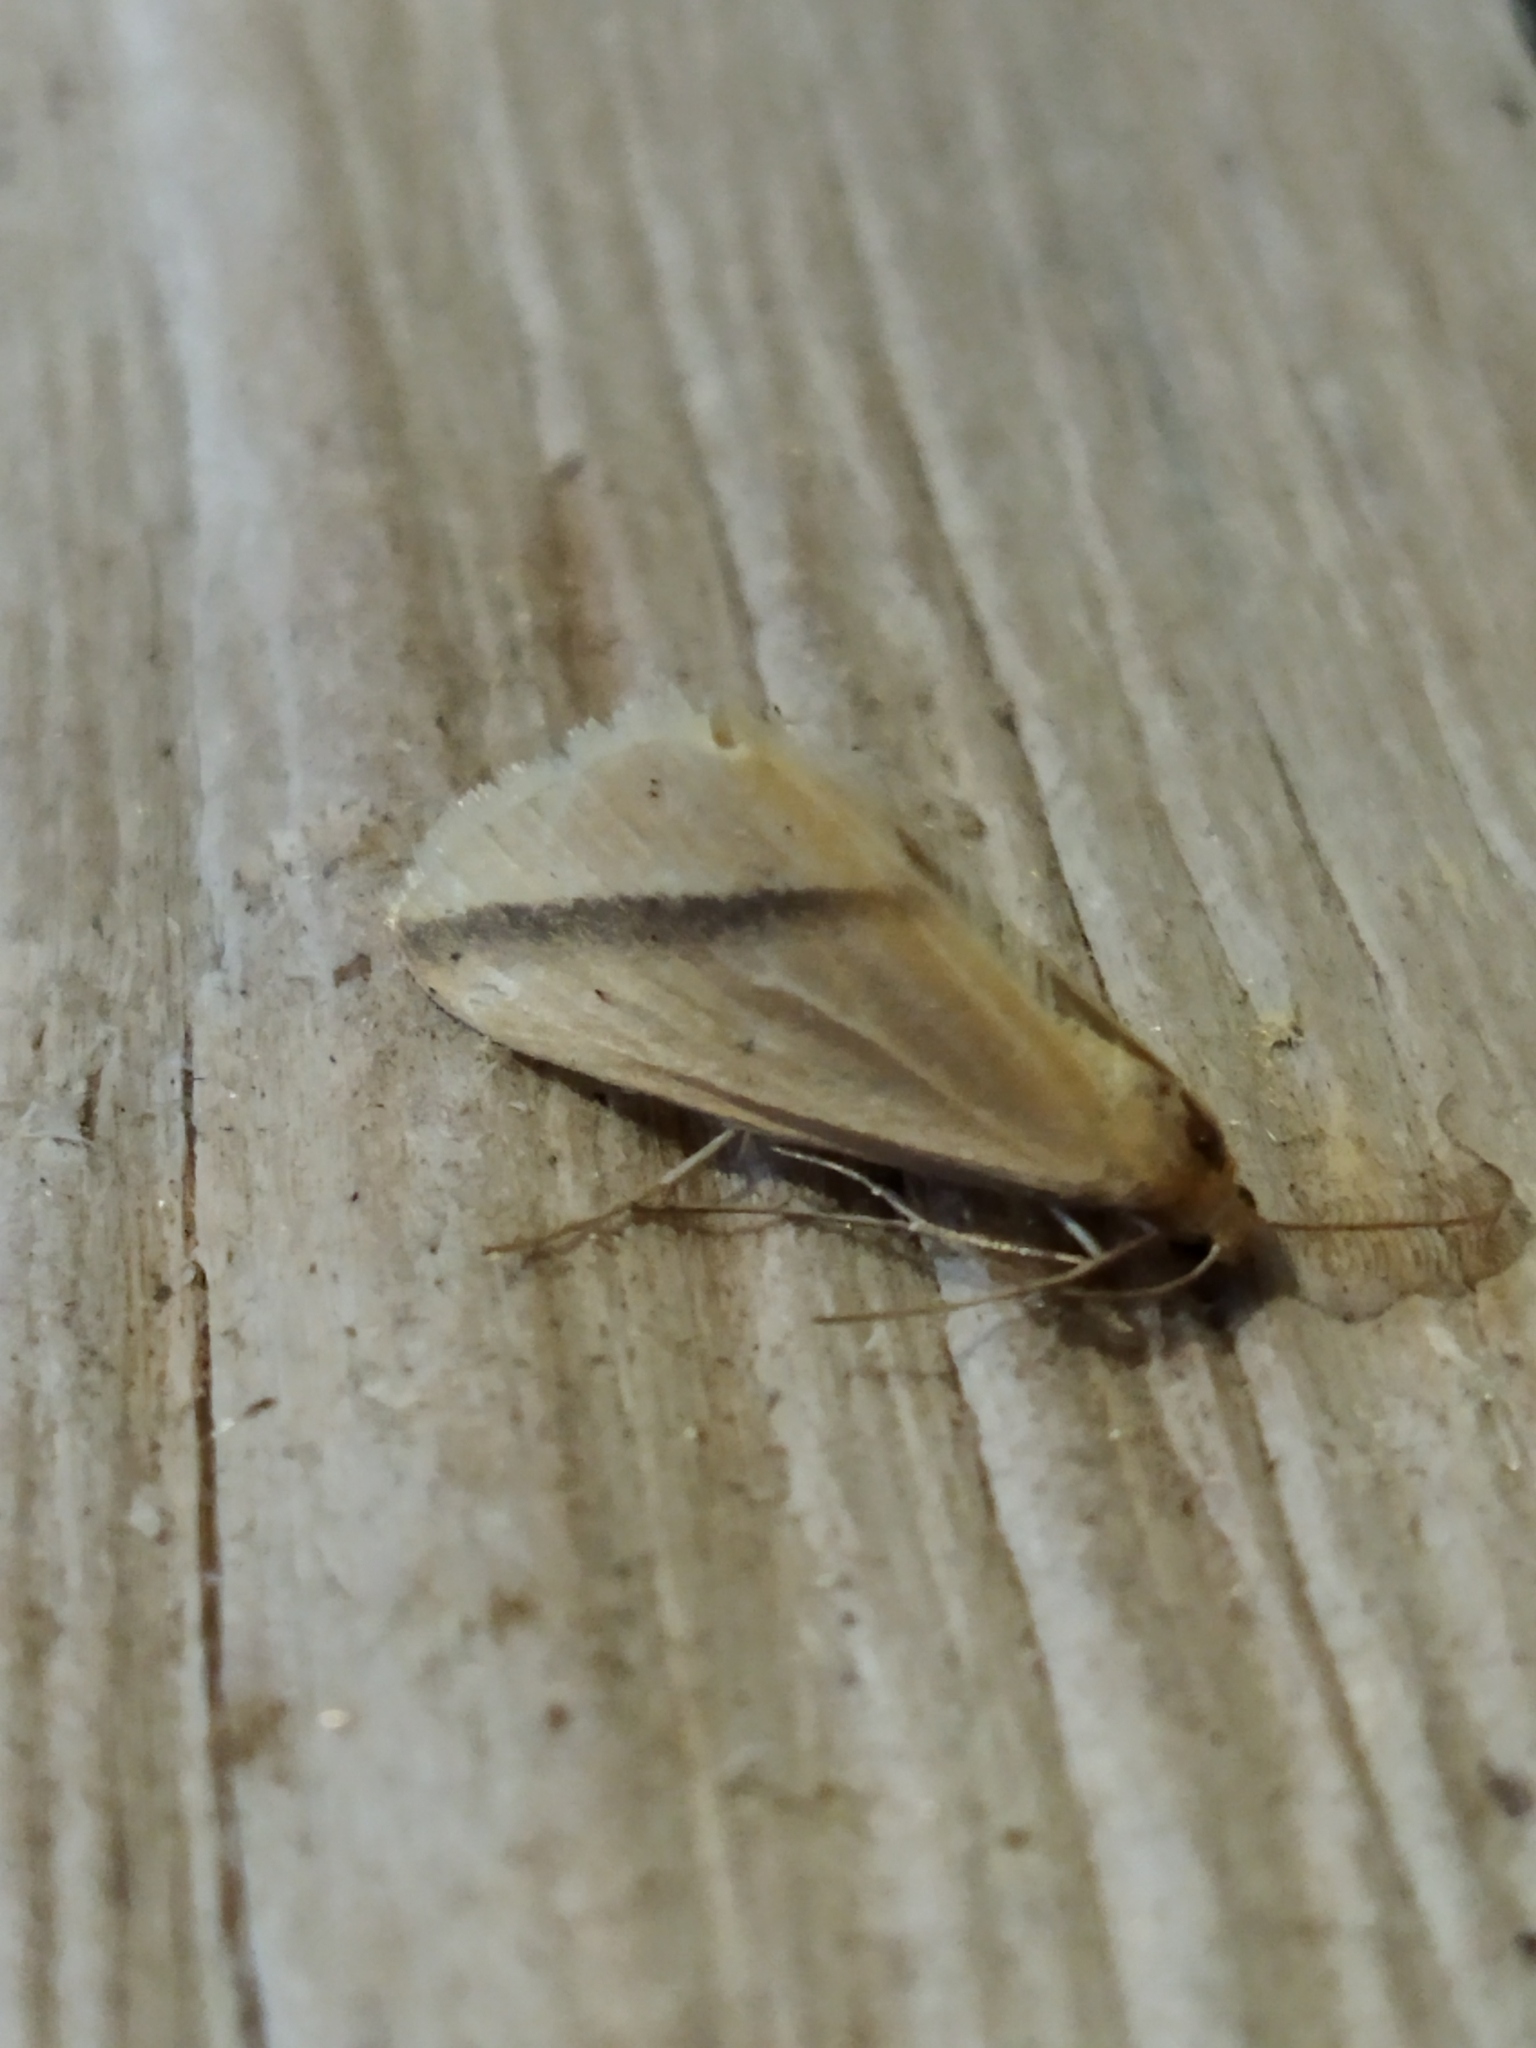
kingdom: Animalia
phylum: Arthropoda
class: Insecta
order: Lepidoptera
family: Geometridae
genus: Rhodometra
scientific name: Rhodometra sacraria
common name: Vestal
